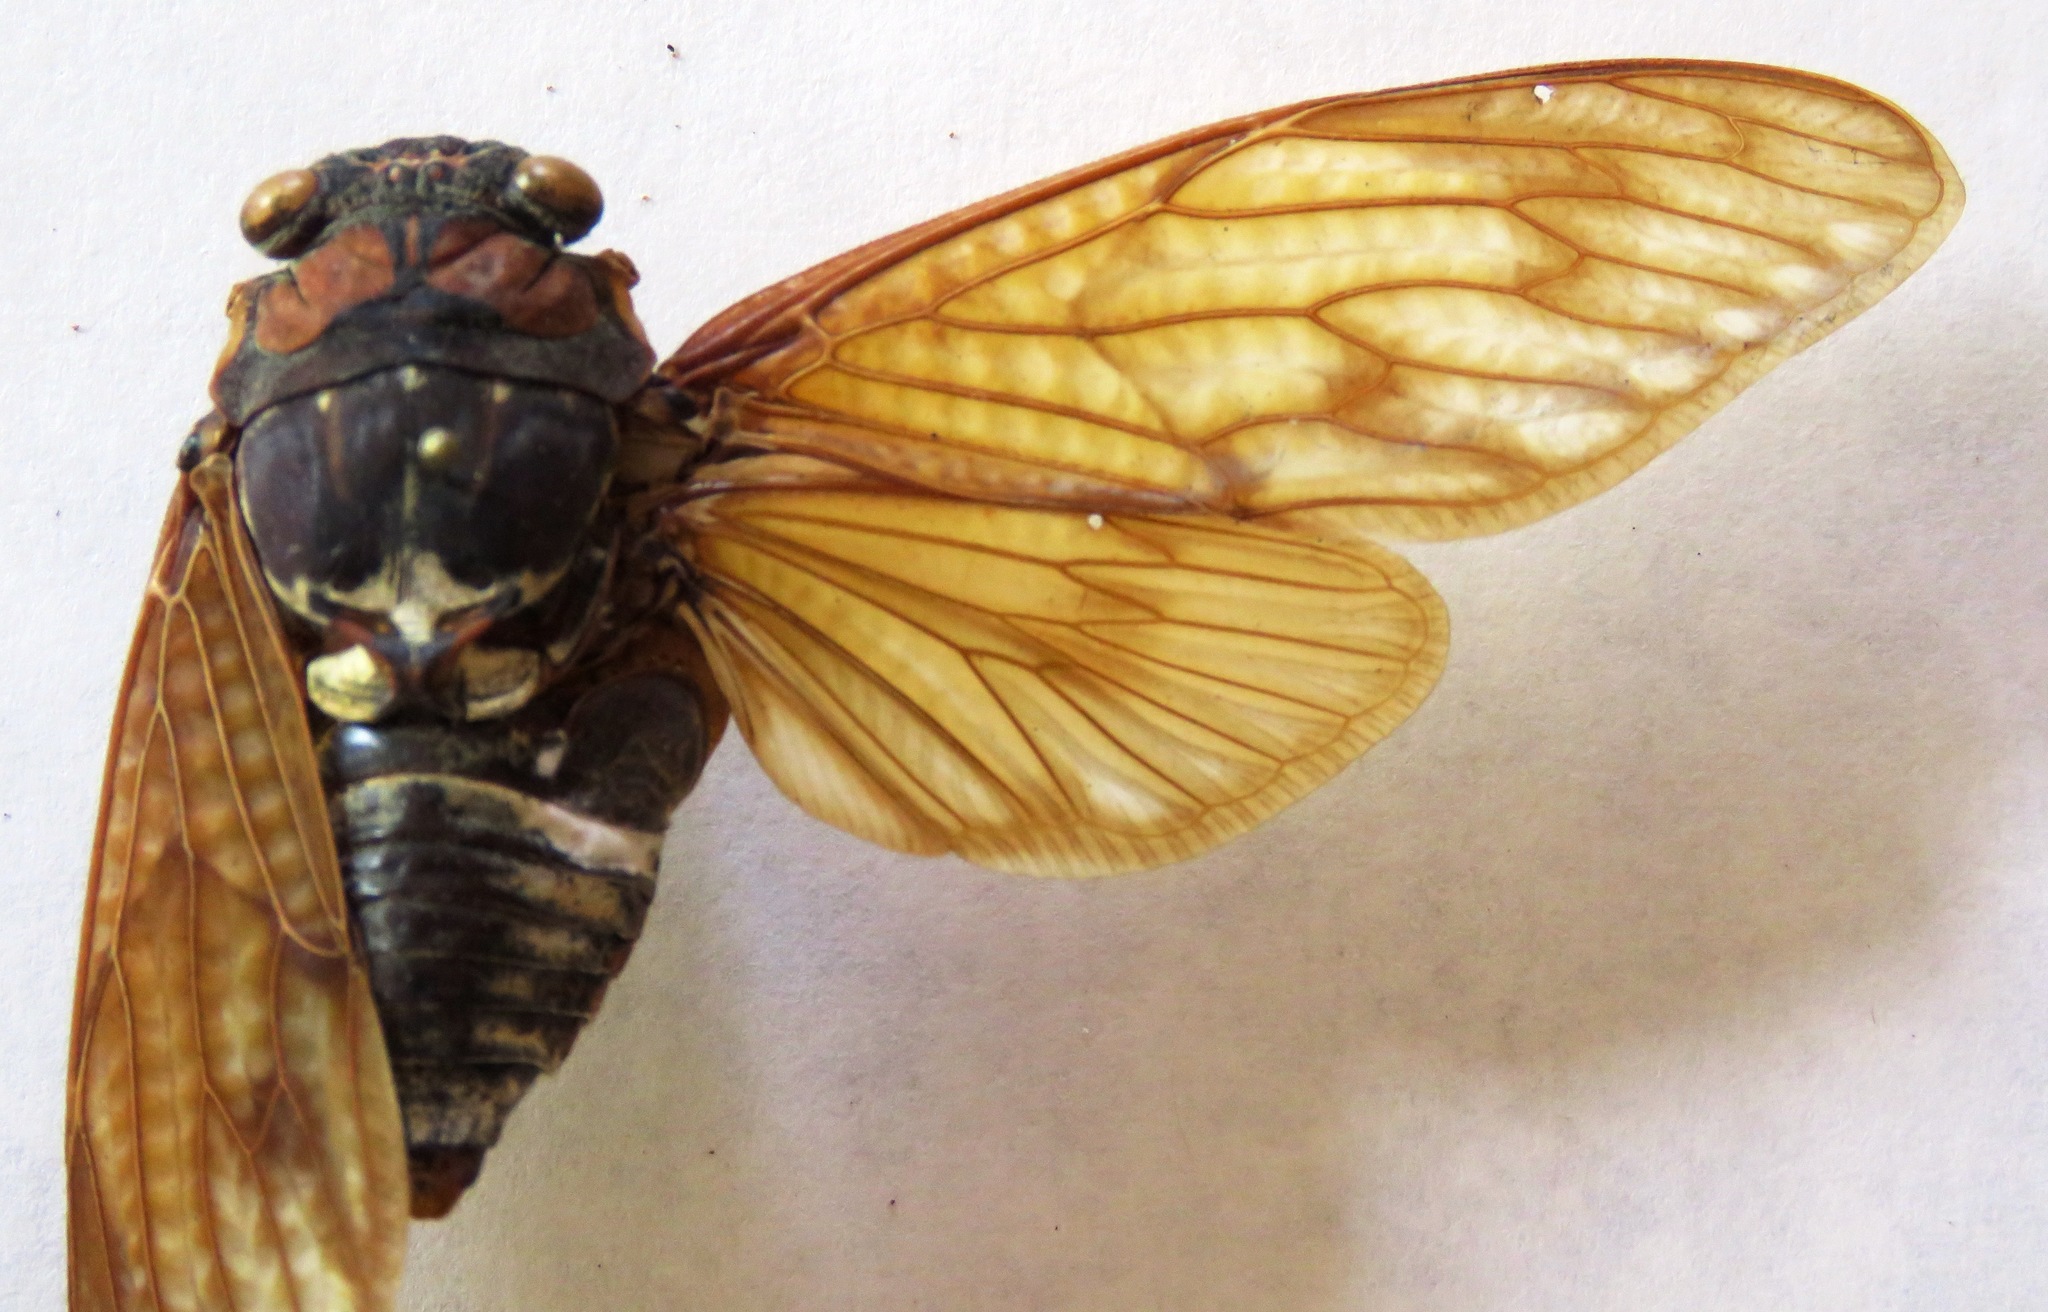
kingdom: Animalia
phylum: Arthropoda
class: Insecta
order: Hemiptera
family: Cicadidae
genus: Graptopsaltria
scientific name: Graptopsaltria nigrofuscata
